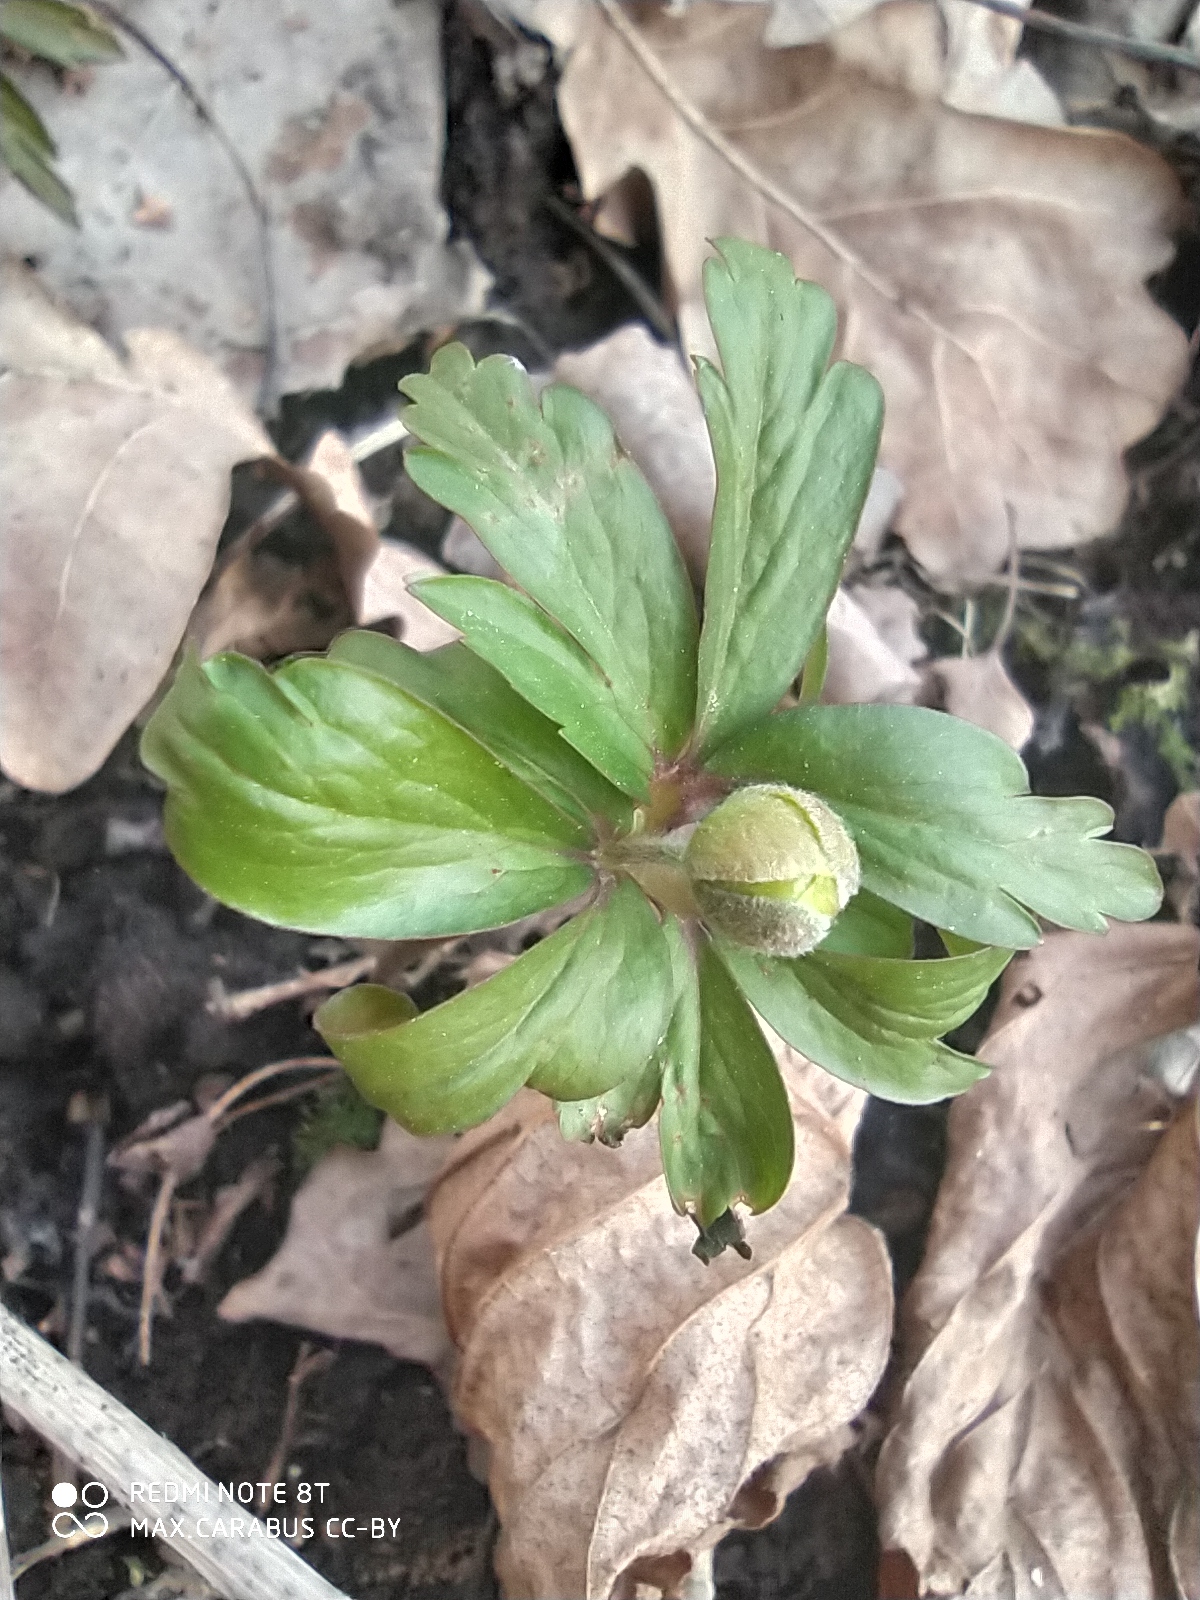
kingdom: Plantae
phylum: Tracheophyta
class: Magnoliopsida
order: Ranunculales
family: Ranunculaceae
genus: Anemone
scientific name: Anemone ranunculoides
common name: Yellow anemone
